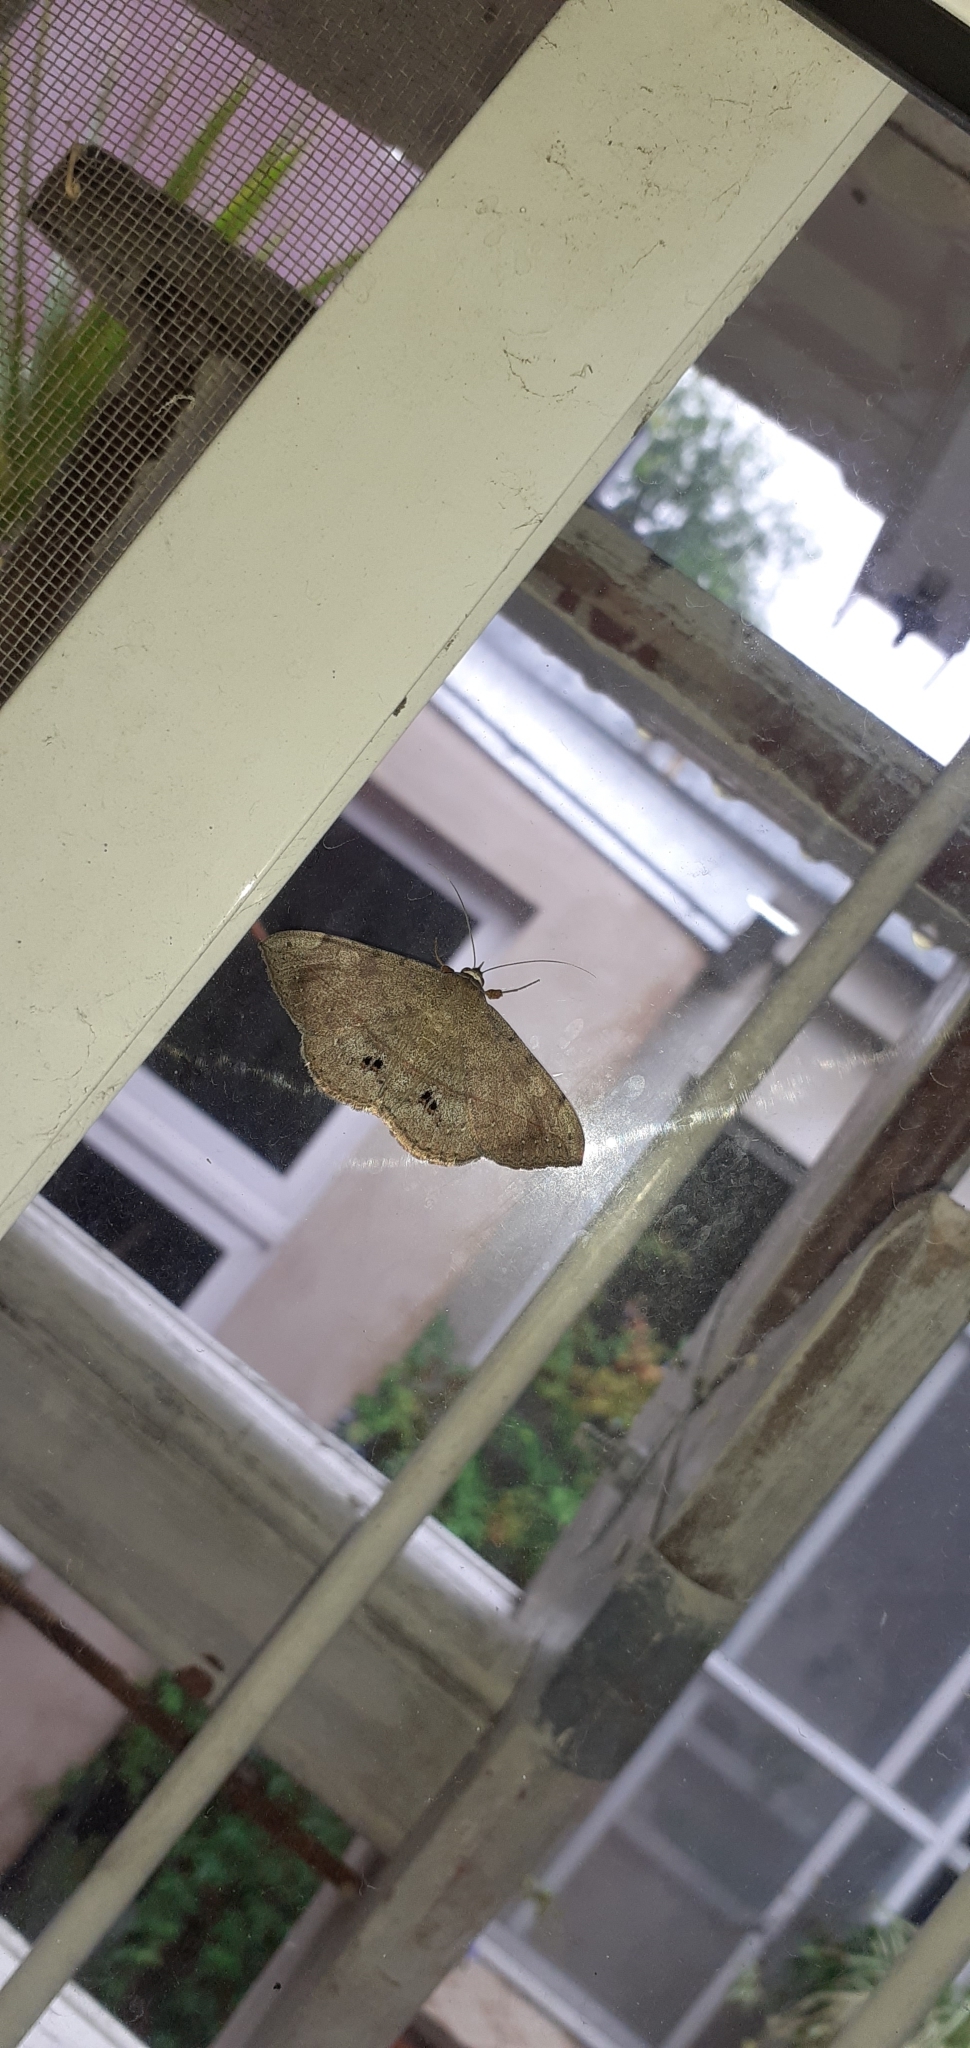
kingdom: Animalia
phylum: Arthropoda
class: Insecta
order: Lepidoptera
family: Erebidae
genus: Anticarsia
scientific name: Anticarsia gemmatalis
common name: Cutworm moth
